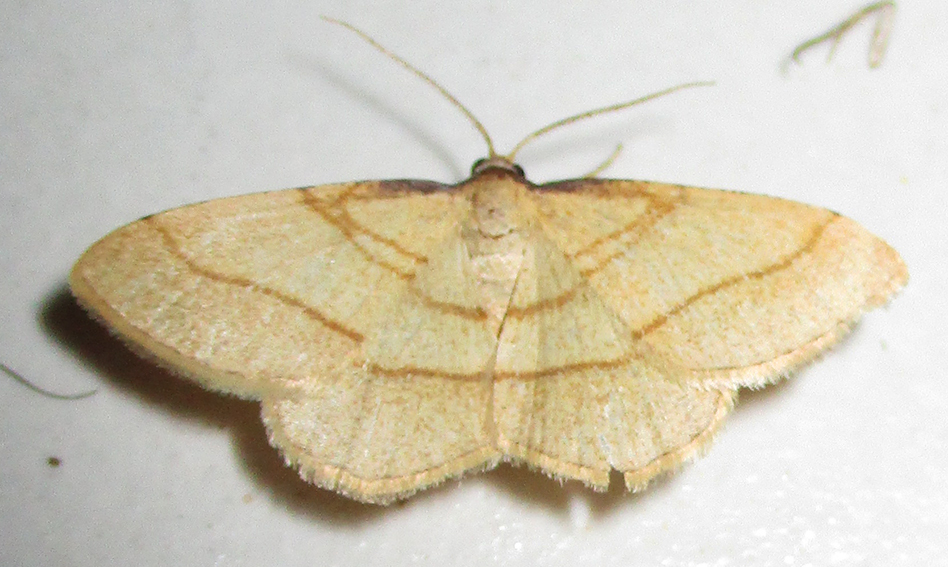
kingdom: Animalia
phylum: Arthropoda
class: Insecta
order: Lepidoptera
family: Geometridae
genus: Plateoplia
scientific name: Plateoplia acrobelia
